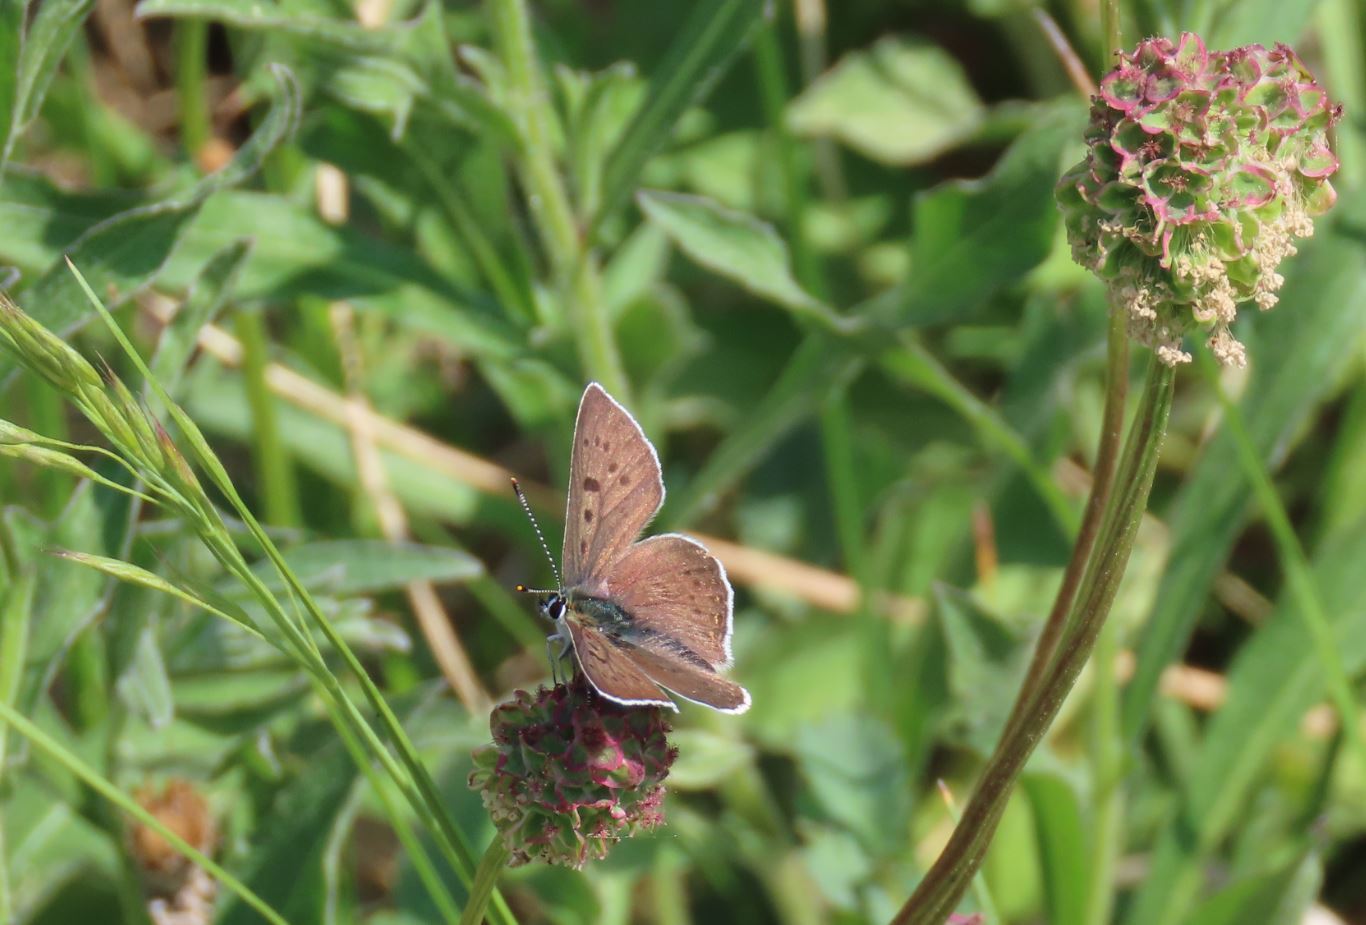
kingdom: Animalia
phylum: Arthropoda
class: Insecta
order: Lepidoptera
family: Lycaenidae
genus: Loweia
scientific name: Loweia tityrus
